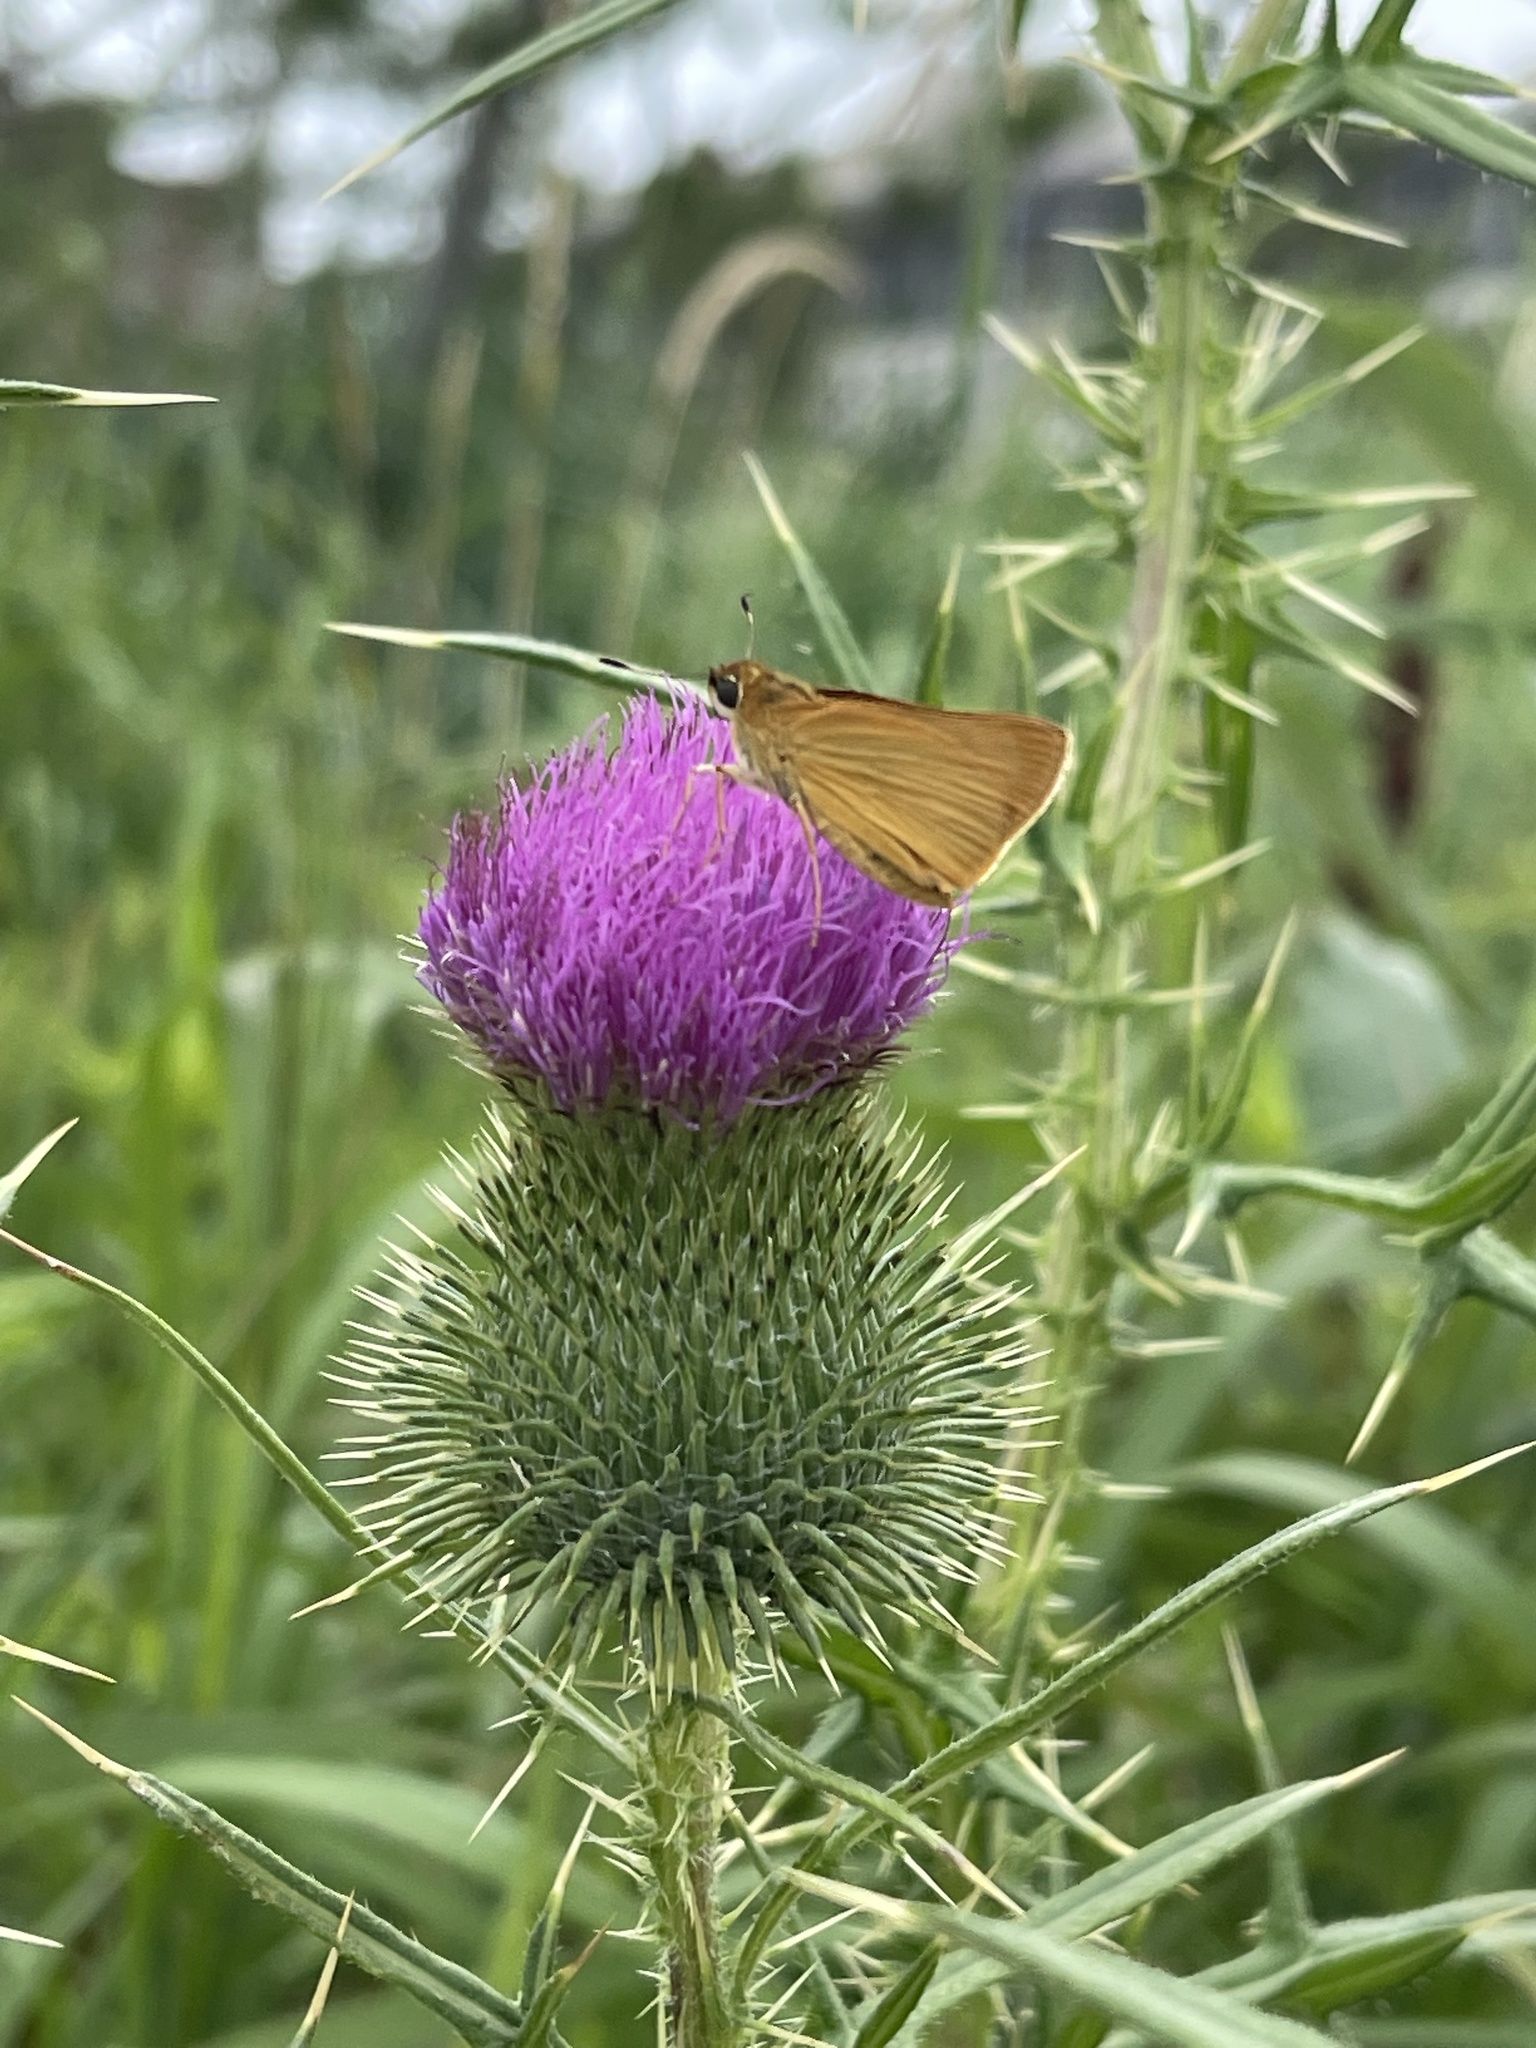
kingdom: Animalia
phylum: Arthropoda
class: Insecta
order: Lepidoptera
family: Hesperiidae
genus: Atrytone
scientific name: Atrytone delaware
